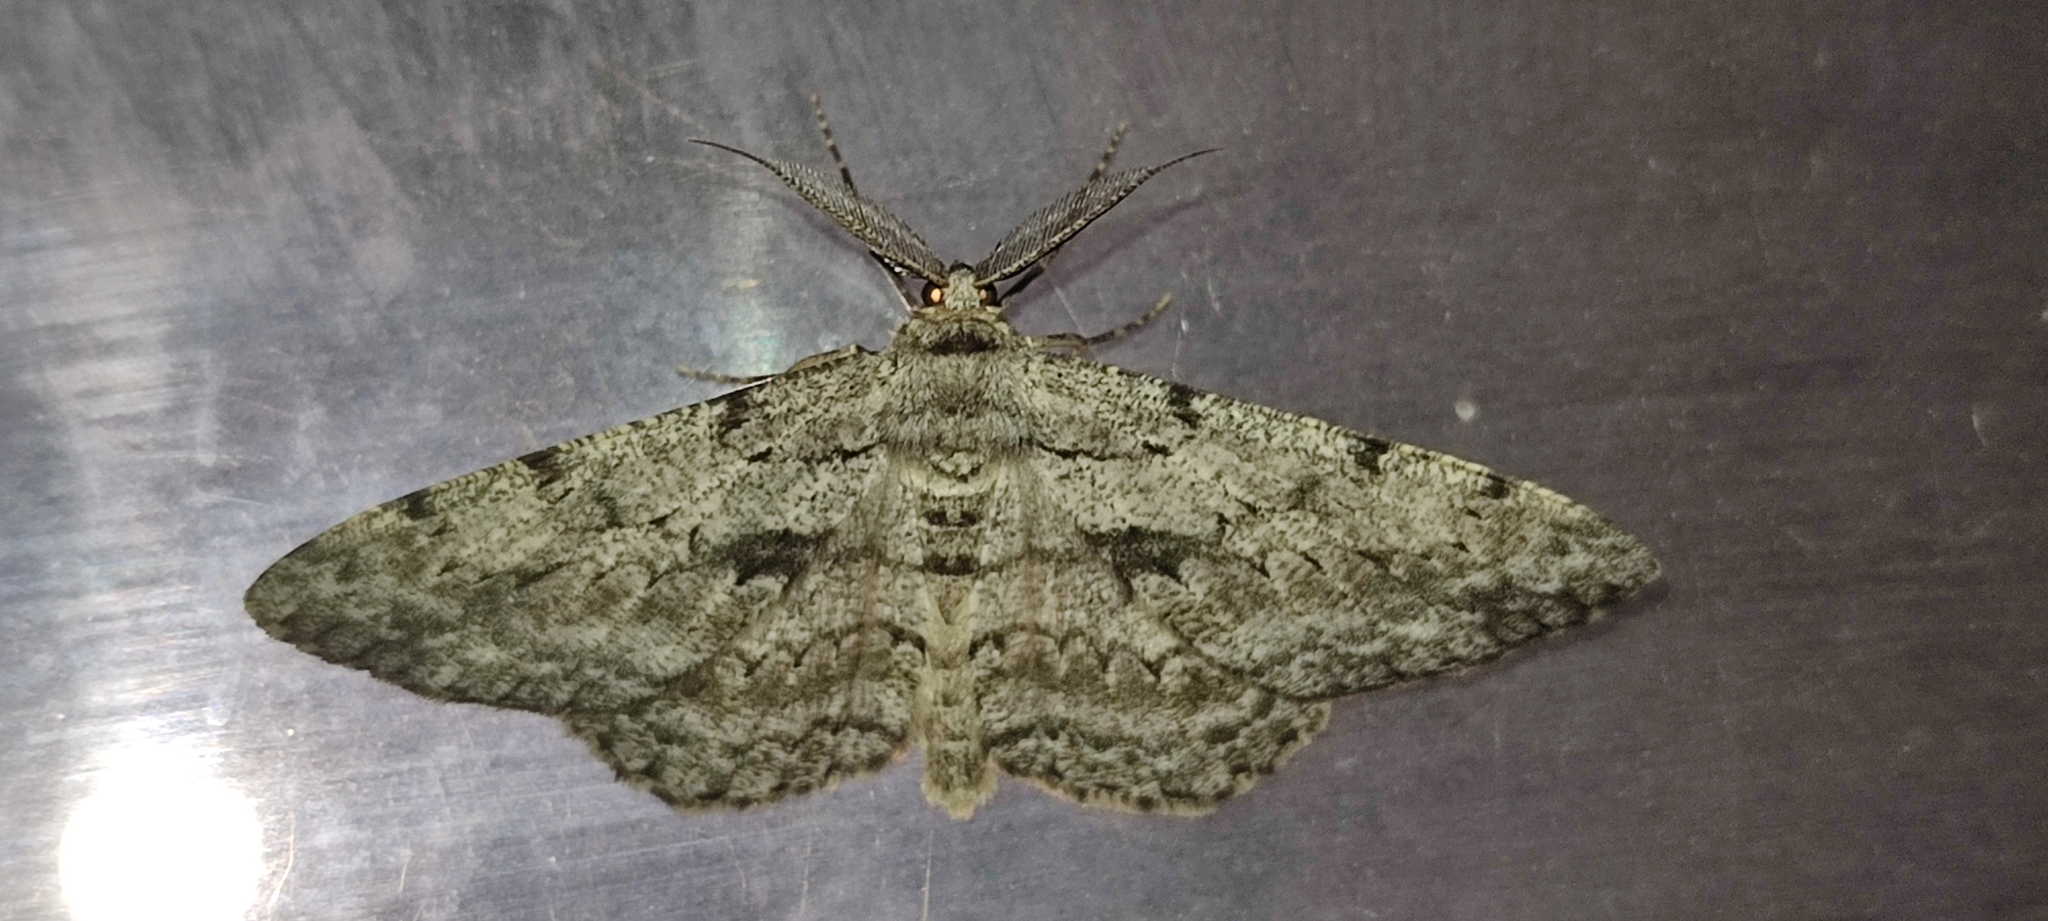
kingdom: Animalia
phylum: Arthropoda
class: Insecta
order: Lepidoptera
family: Geometridae
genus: Hypomecis
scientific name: Hypomecis roboraria
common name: Great oak beauty
